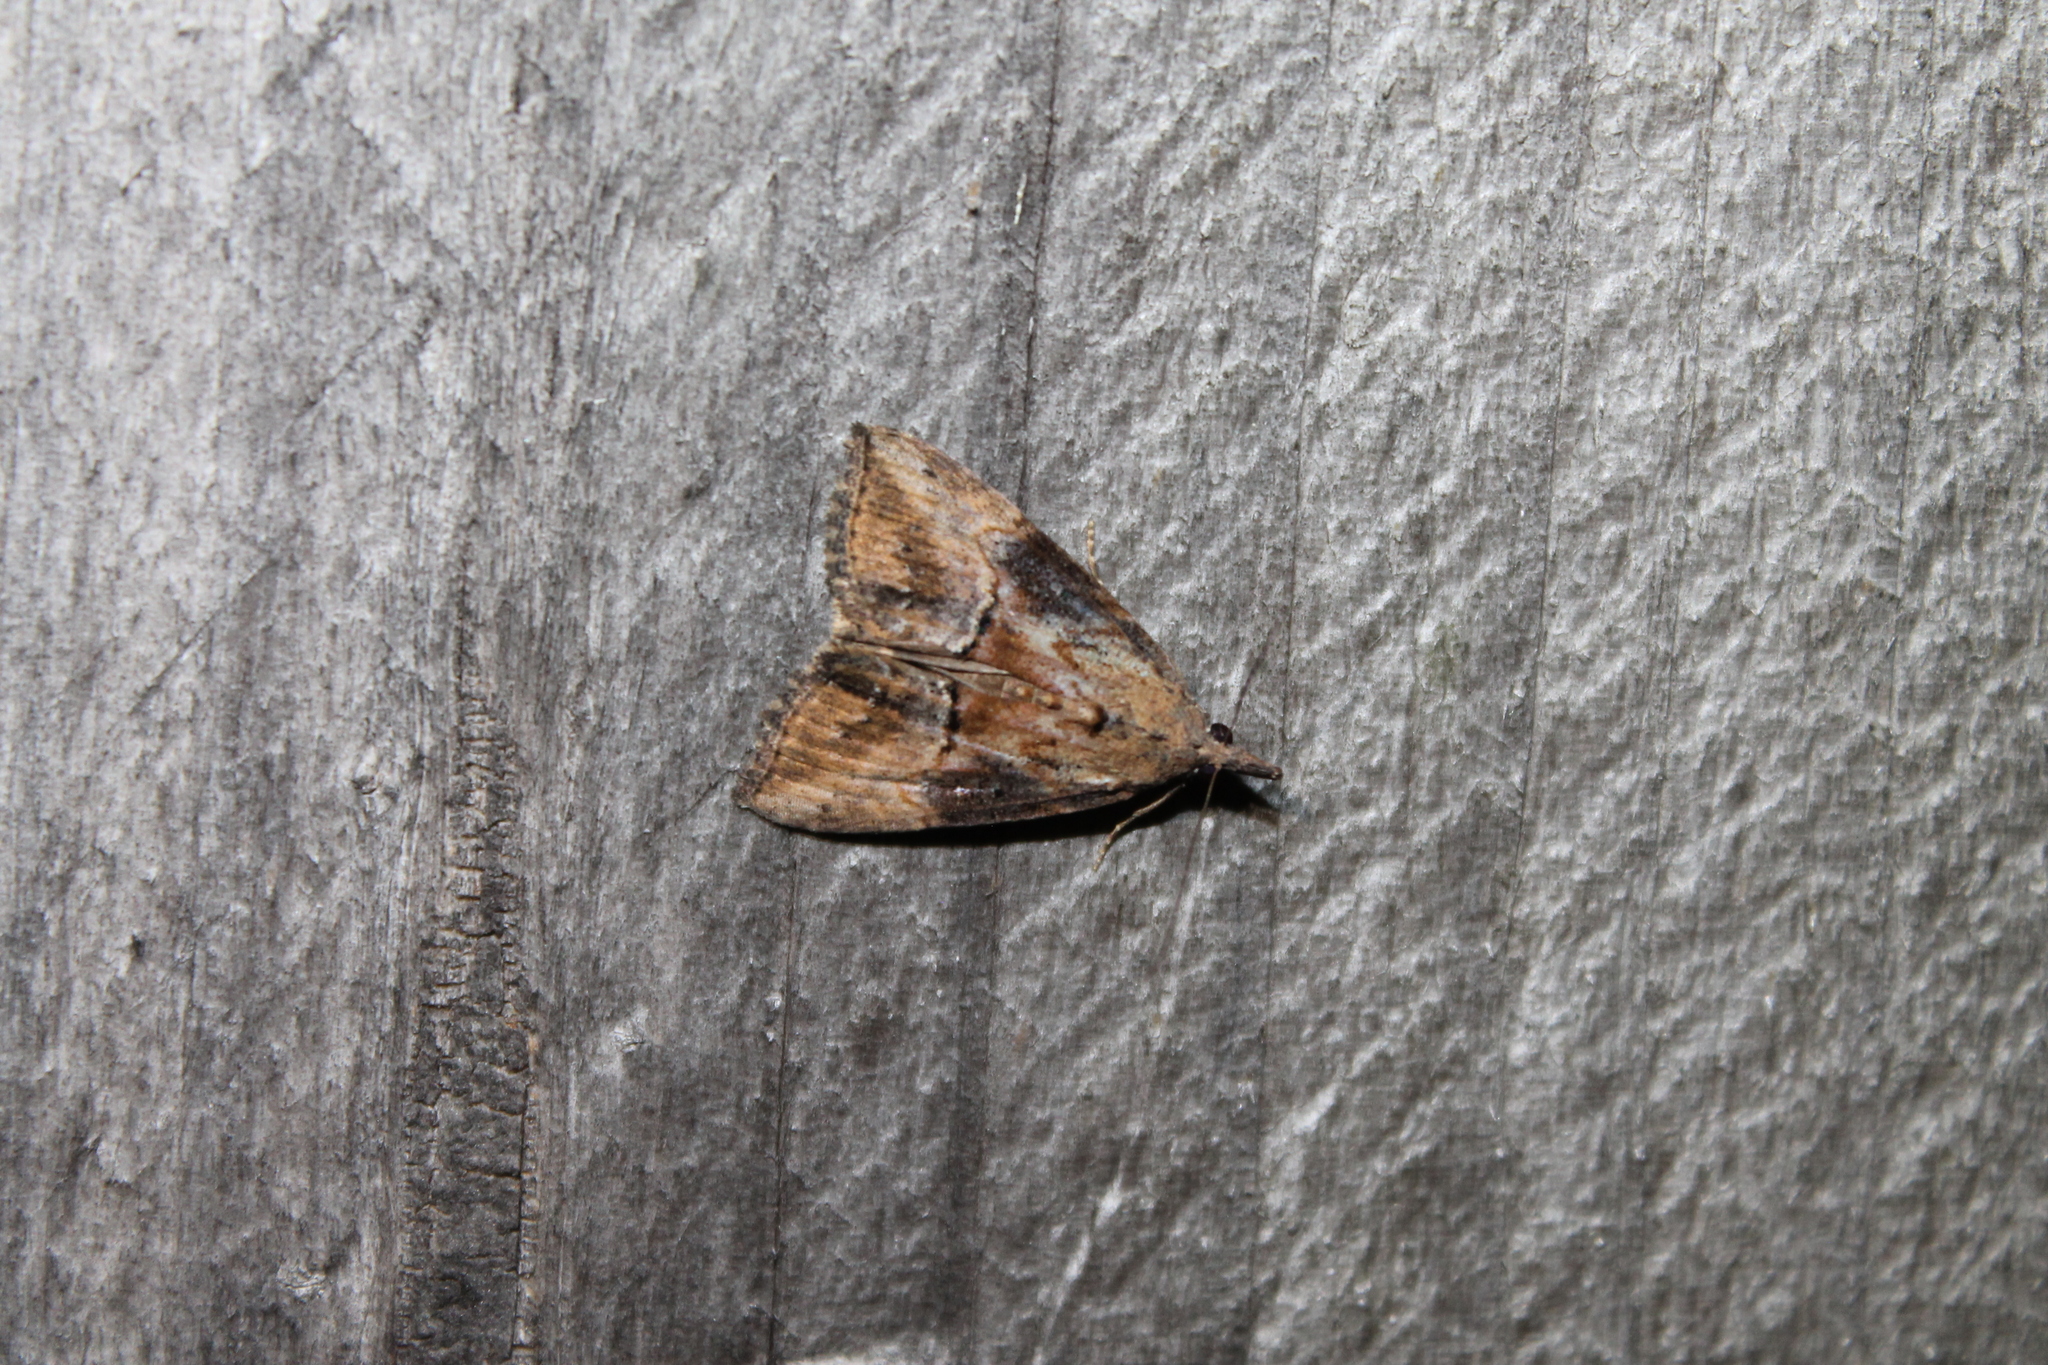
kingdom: Animalia
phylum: Arthropoda
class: Insecta
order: Lepidoptera
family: Erebidae
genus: Hypena
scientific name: Hypena scabra
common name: Green cloverworm
